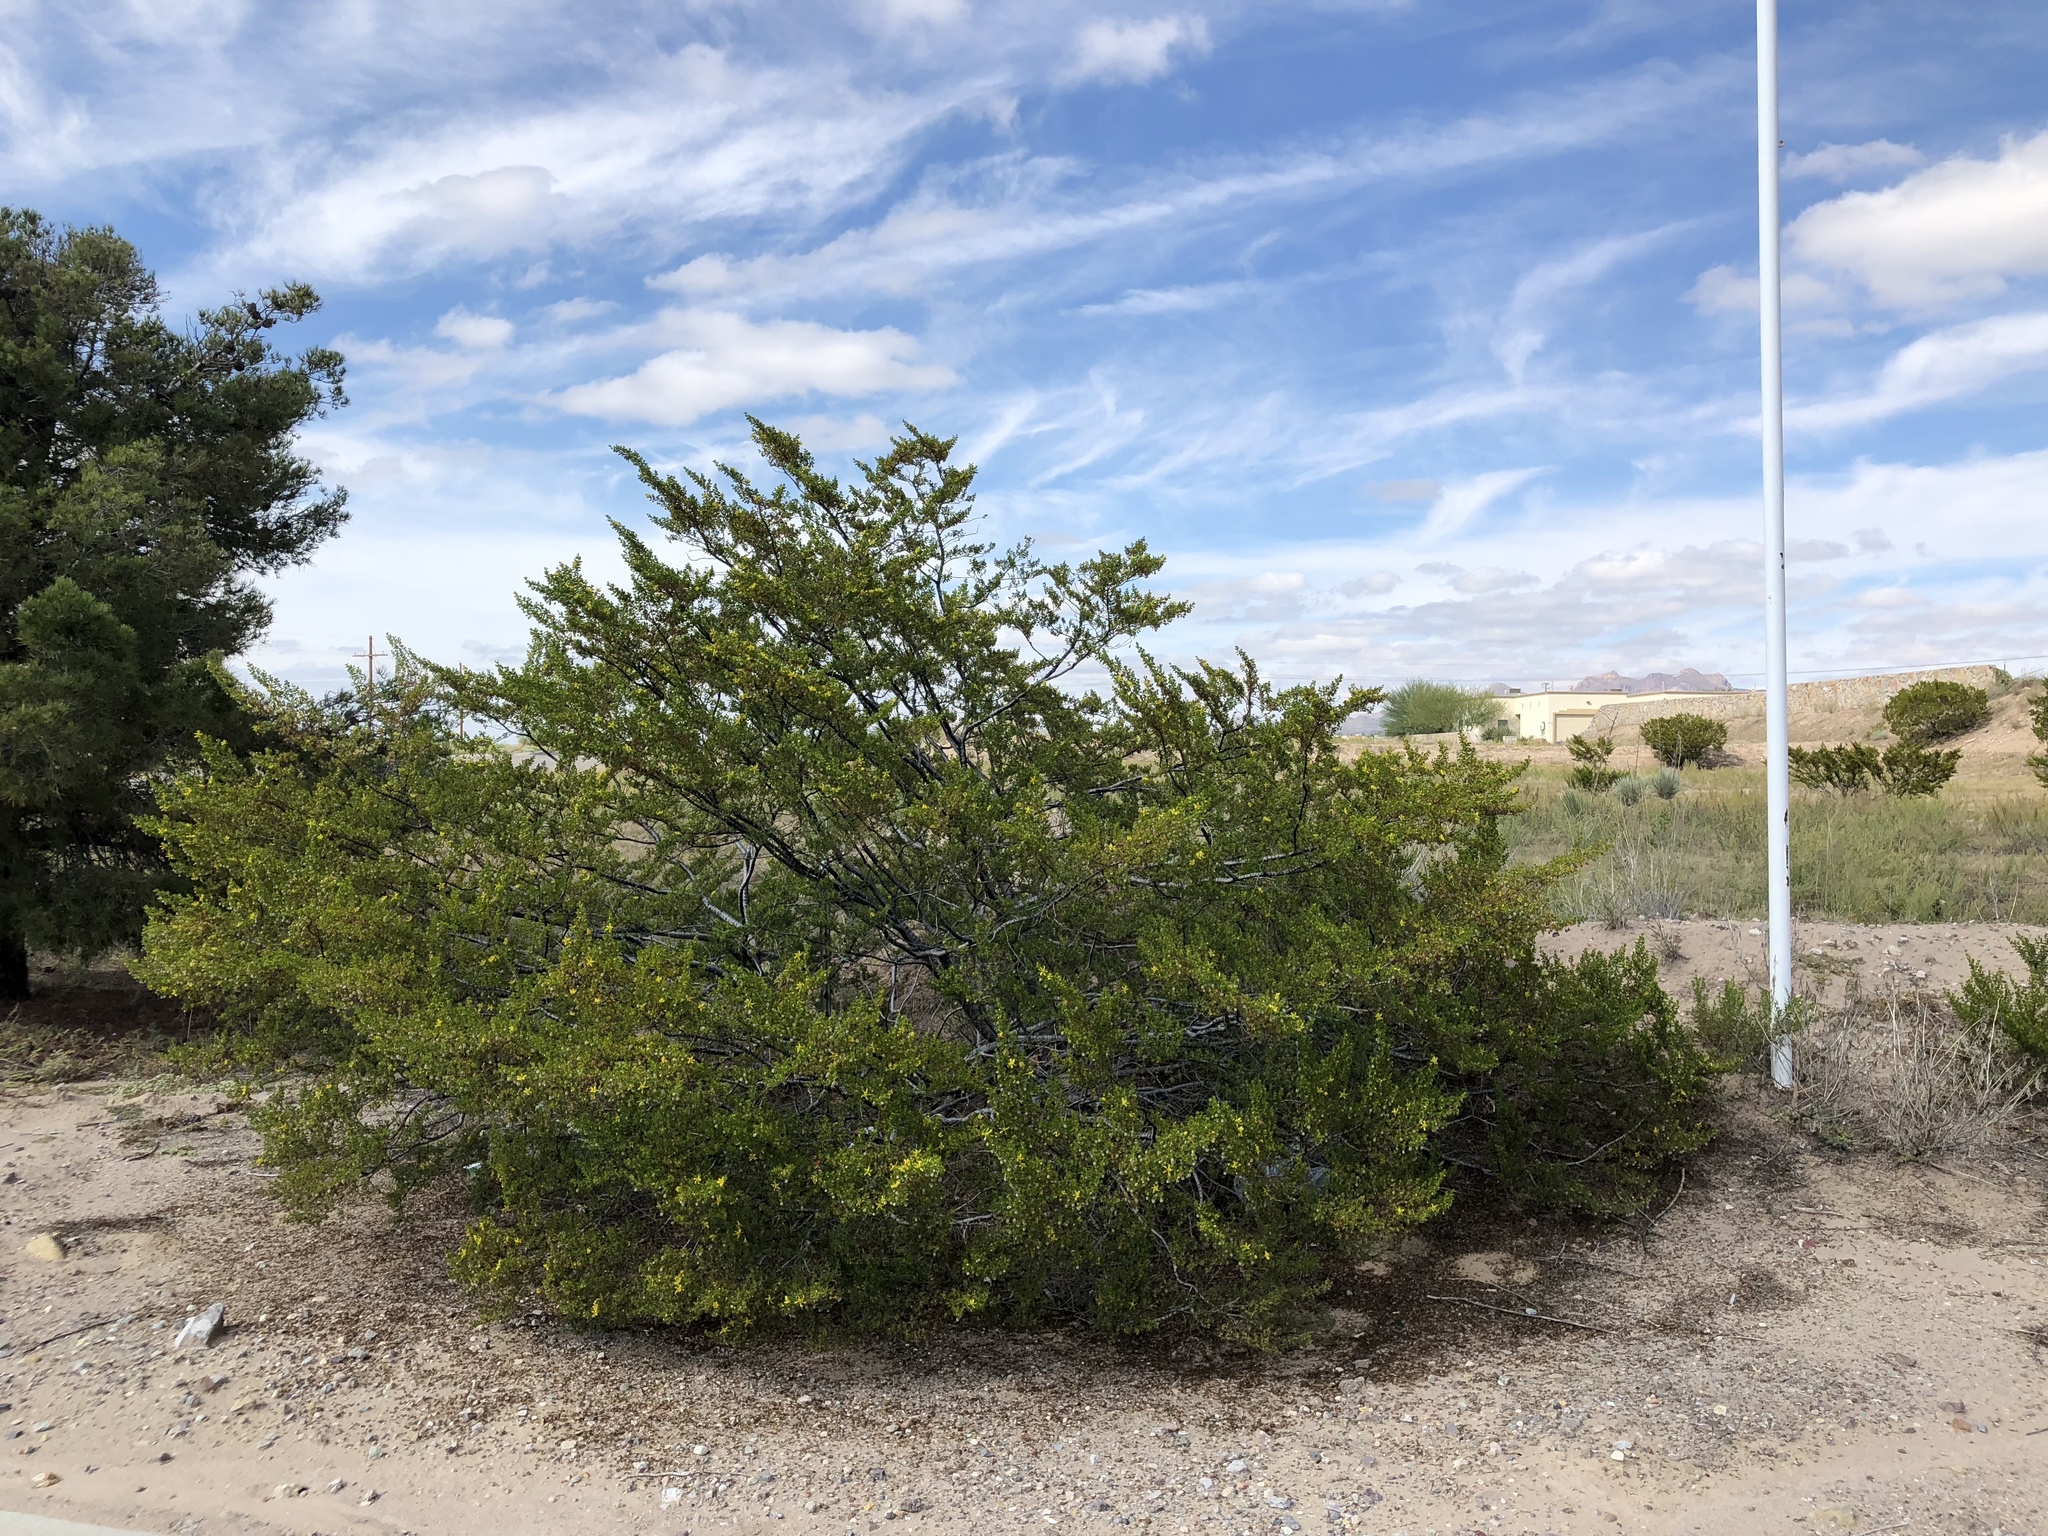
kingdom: Plantae
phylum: Tracheophyta
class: Magnoliopsida
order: Zygophyllales
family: Zygophyllaceae
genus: Larrea
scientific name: Larrea tridentata
